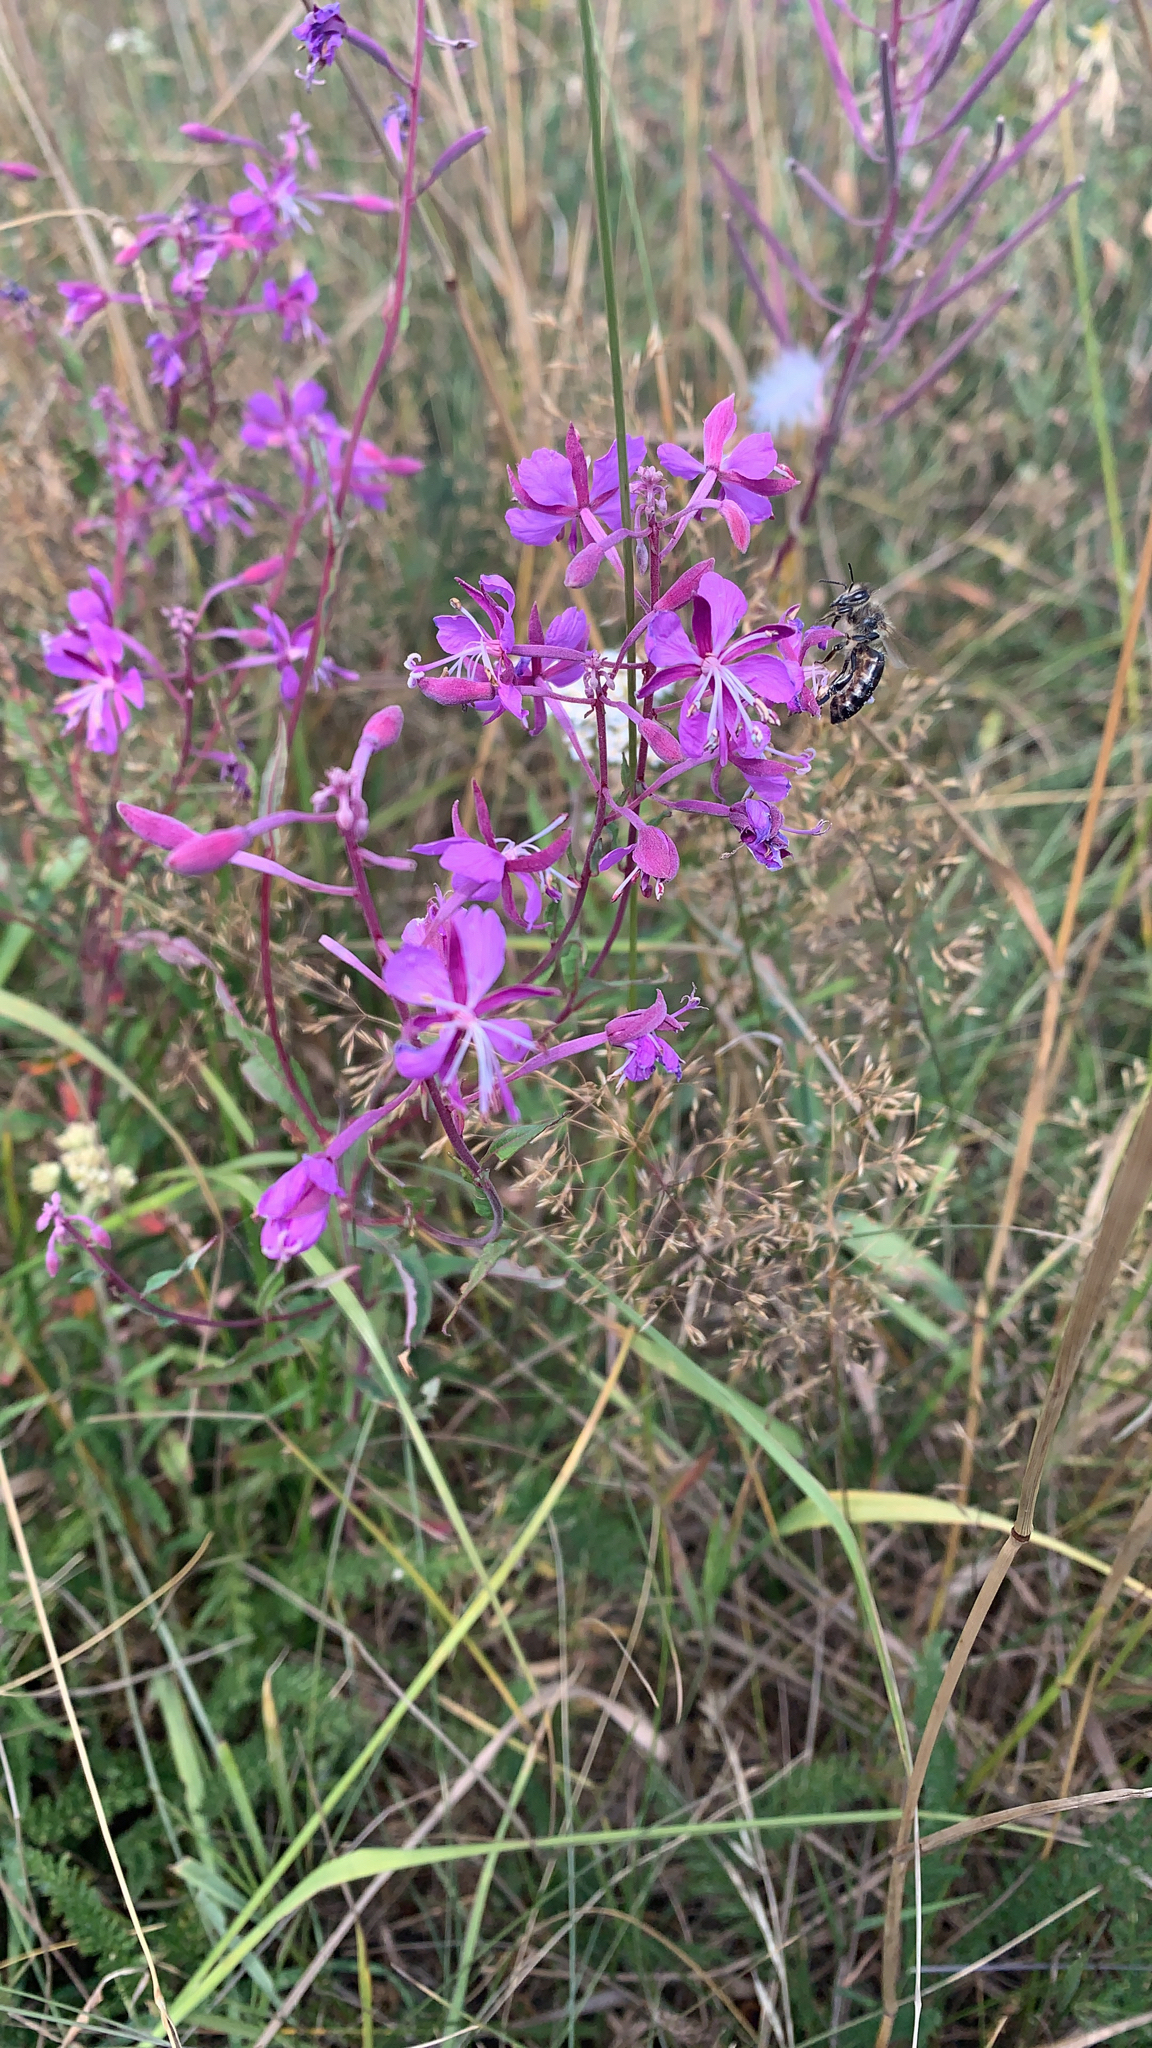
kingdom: Plantae
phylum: Tracheophyta
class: Magnoliopsida
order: Myrtales
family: Onagraceae
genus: Chamaenerion
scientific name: Chamaenerion angustifolium
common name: Fireweed
